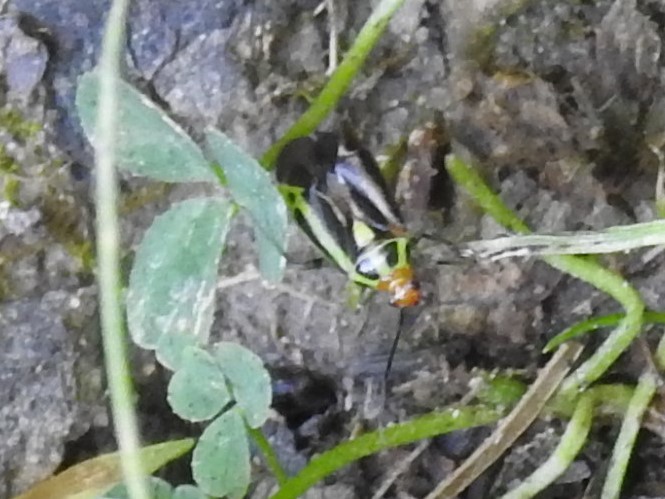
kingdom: Animalia
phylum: Arthropoda
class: Insecta
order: Hemiptera
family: Miridae
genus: Poecilocapsus
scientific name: Poecilocapsus lineatus
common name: Four-lined plant bug
